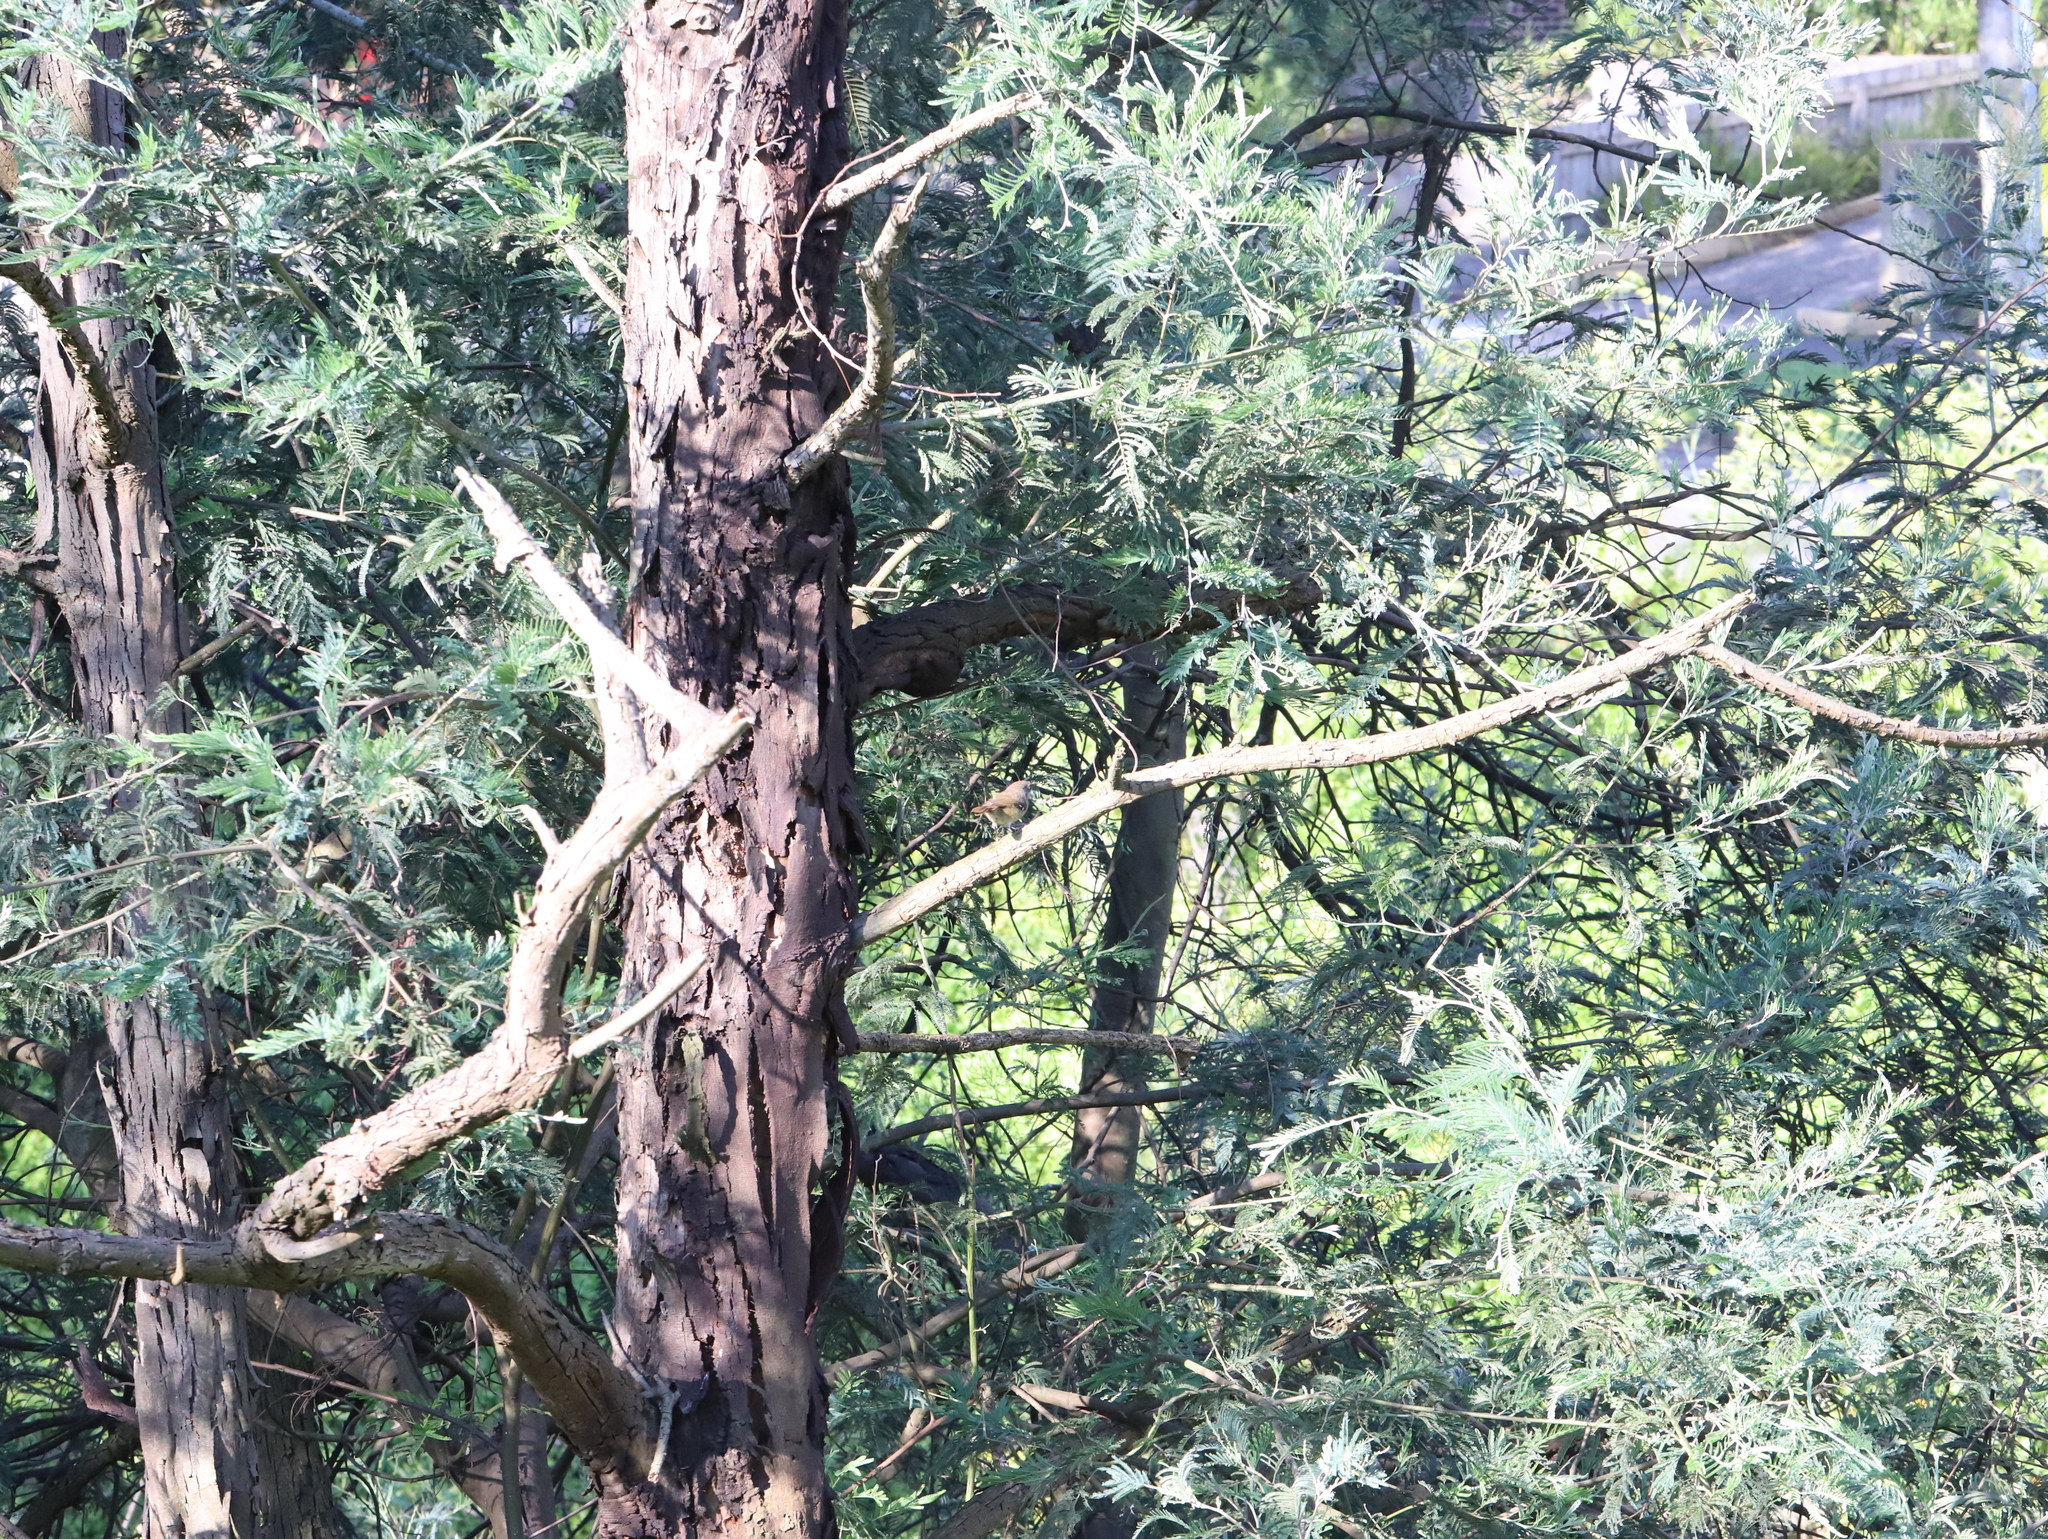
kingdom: Animalia
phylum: Chordata
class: Aves
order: Passeriformes
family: Acanthizidae
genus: Sericornis
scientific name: Sericornis frontalis
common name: White-browed scrubwren
